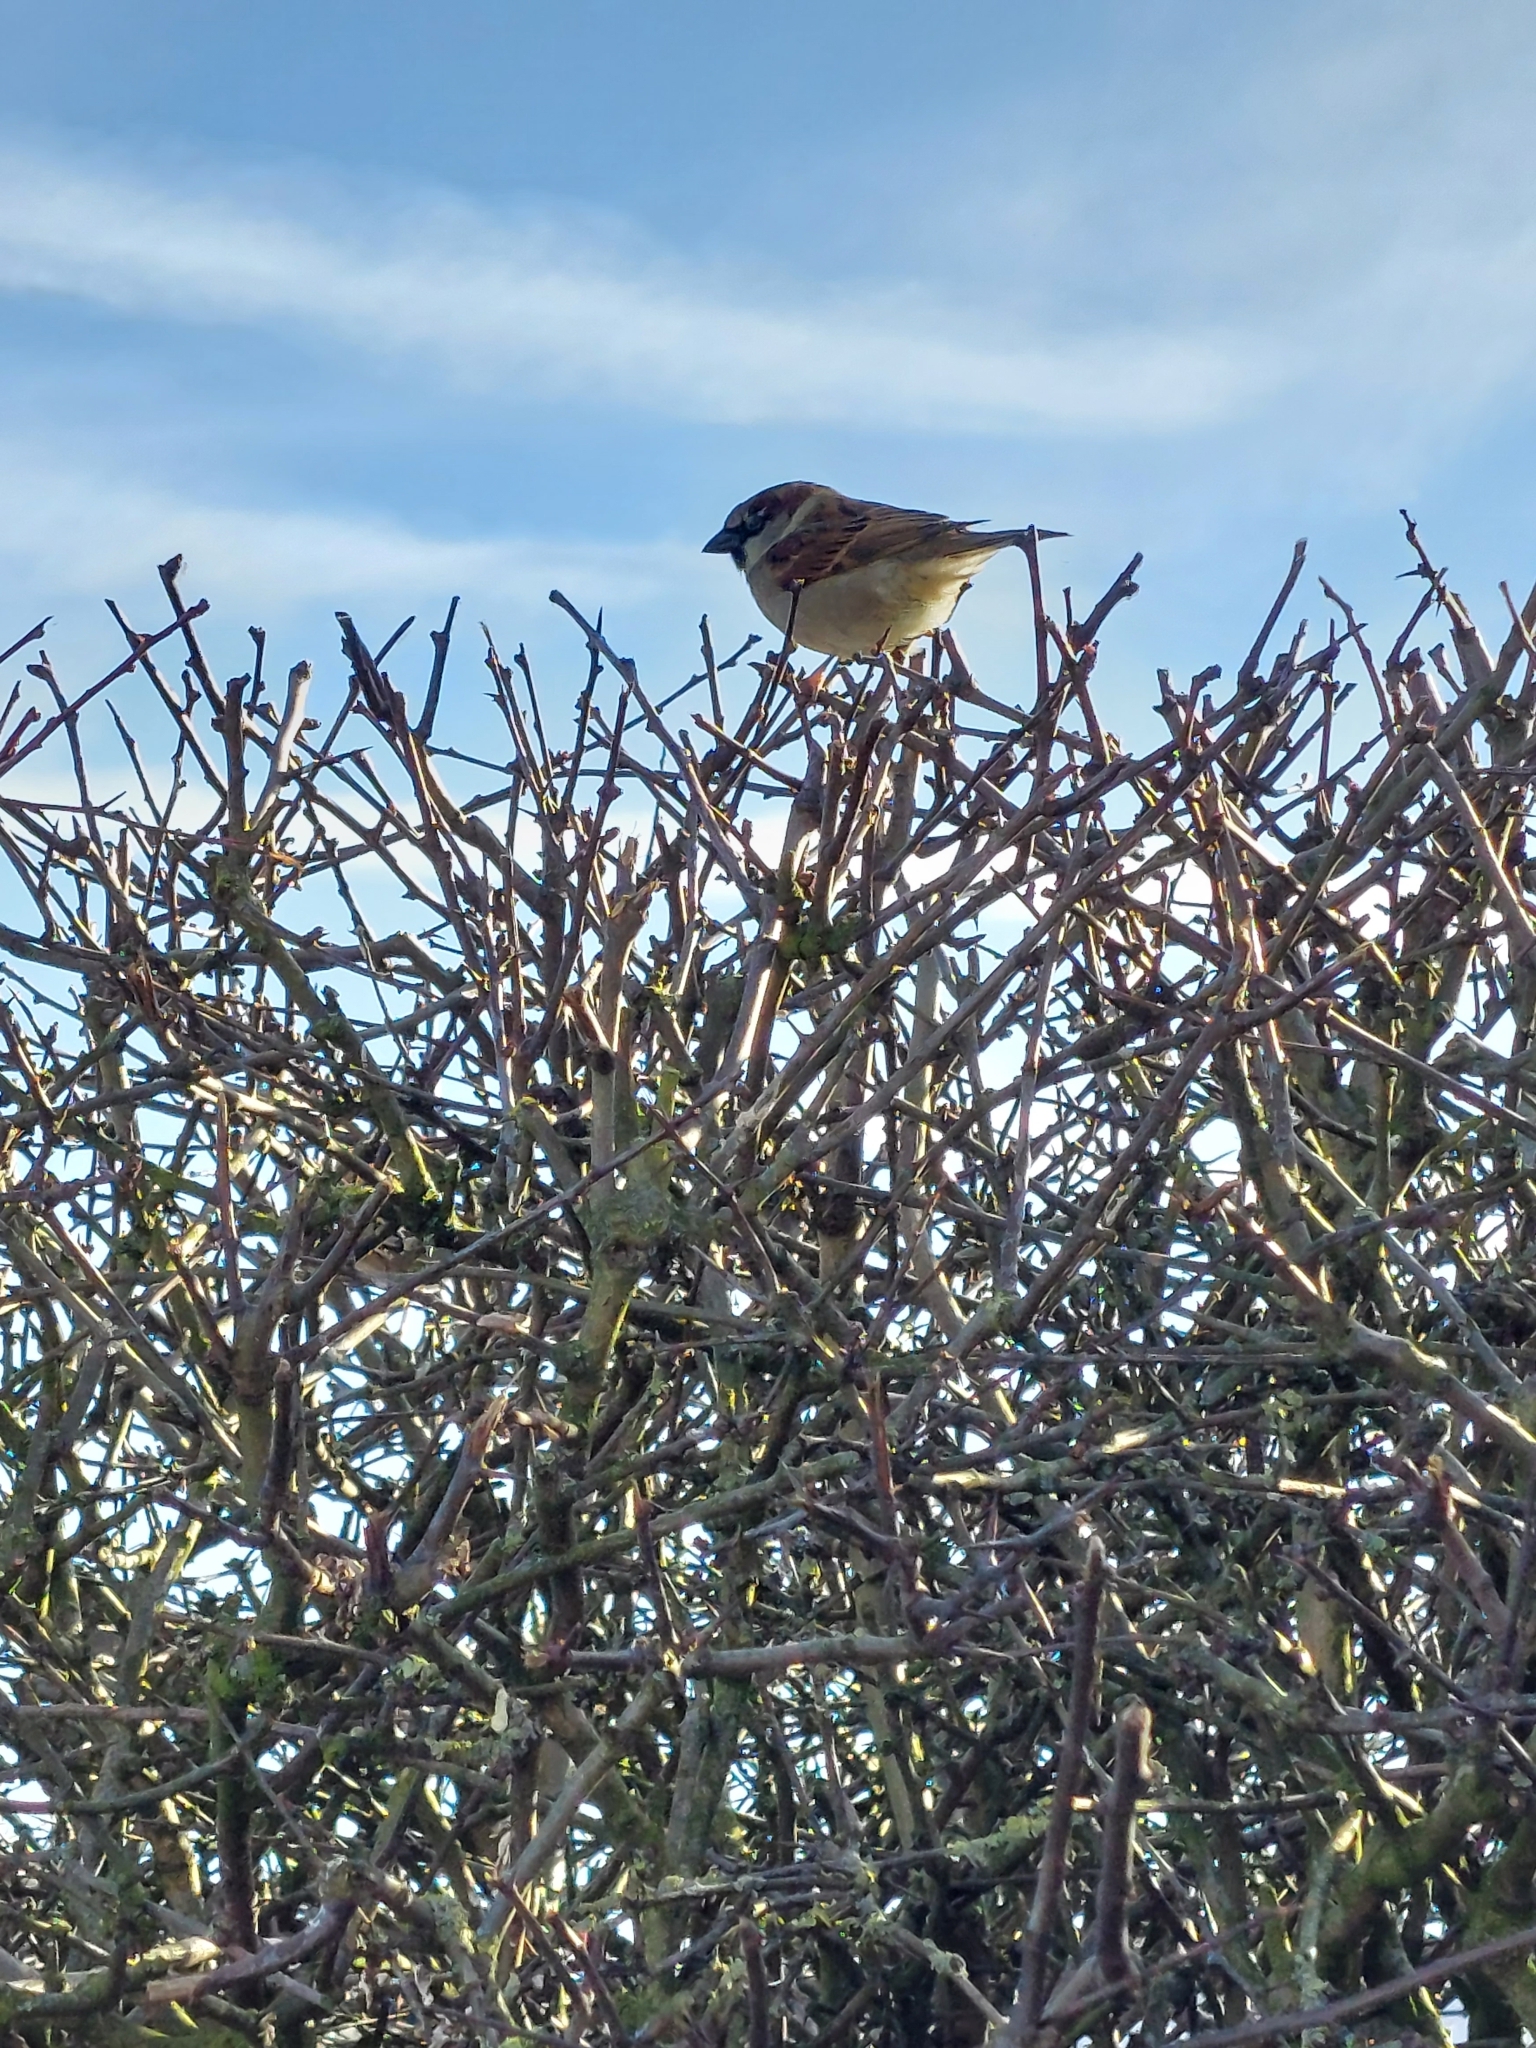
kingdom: Animalia
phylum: Chordata
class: Aves
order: Passeriformes
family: Passeridae
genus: Passer
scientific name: Passer domesticus
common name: House sparrow
